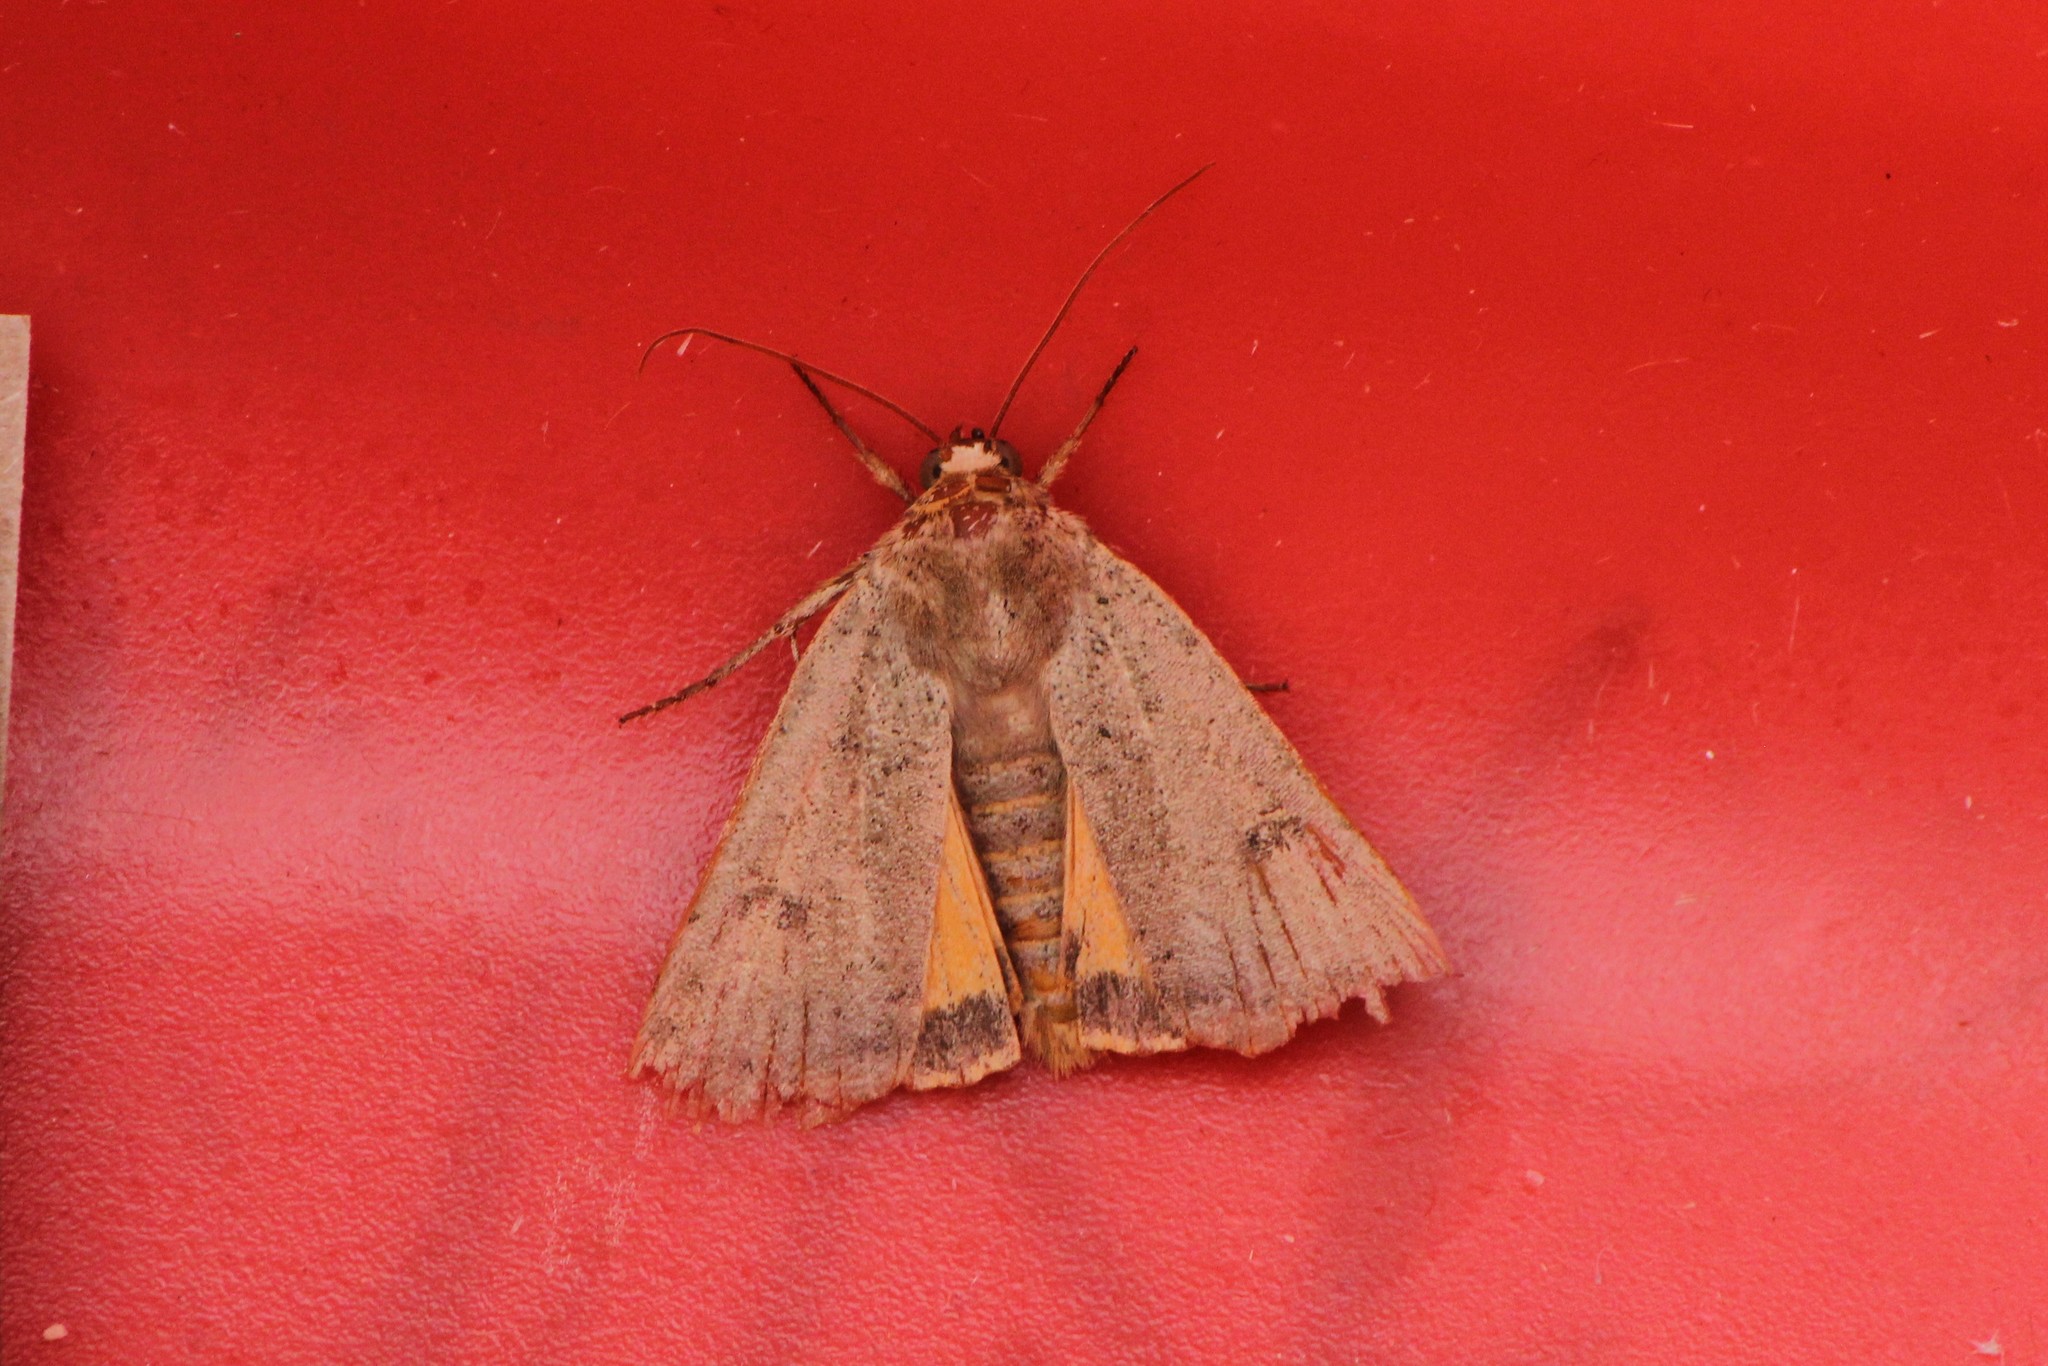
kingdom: Animalia
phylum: Arthropoda
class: Insecta
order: Lepidoptera
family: Noctuidae
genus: Noctua
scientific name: Noctua comes
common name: Lesser yellow underwing
